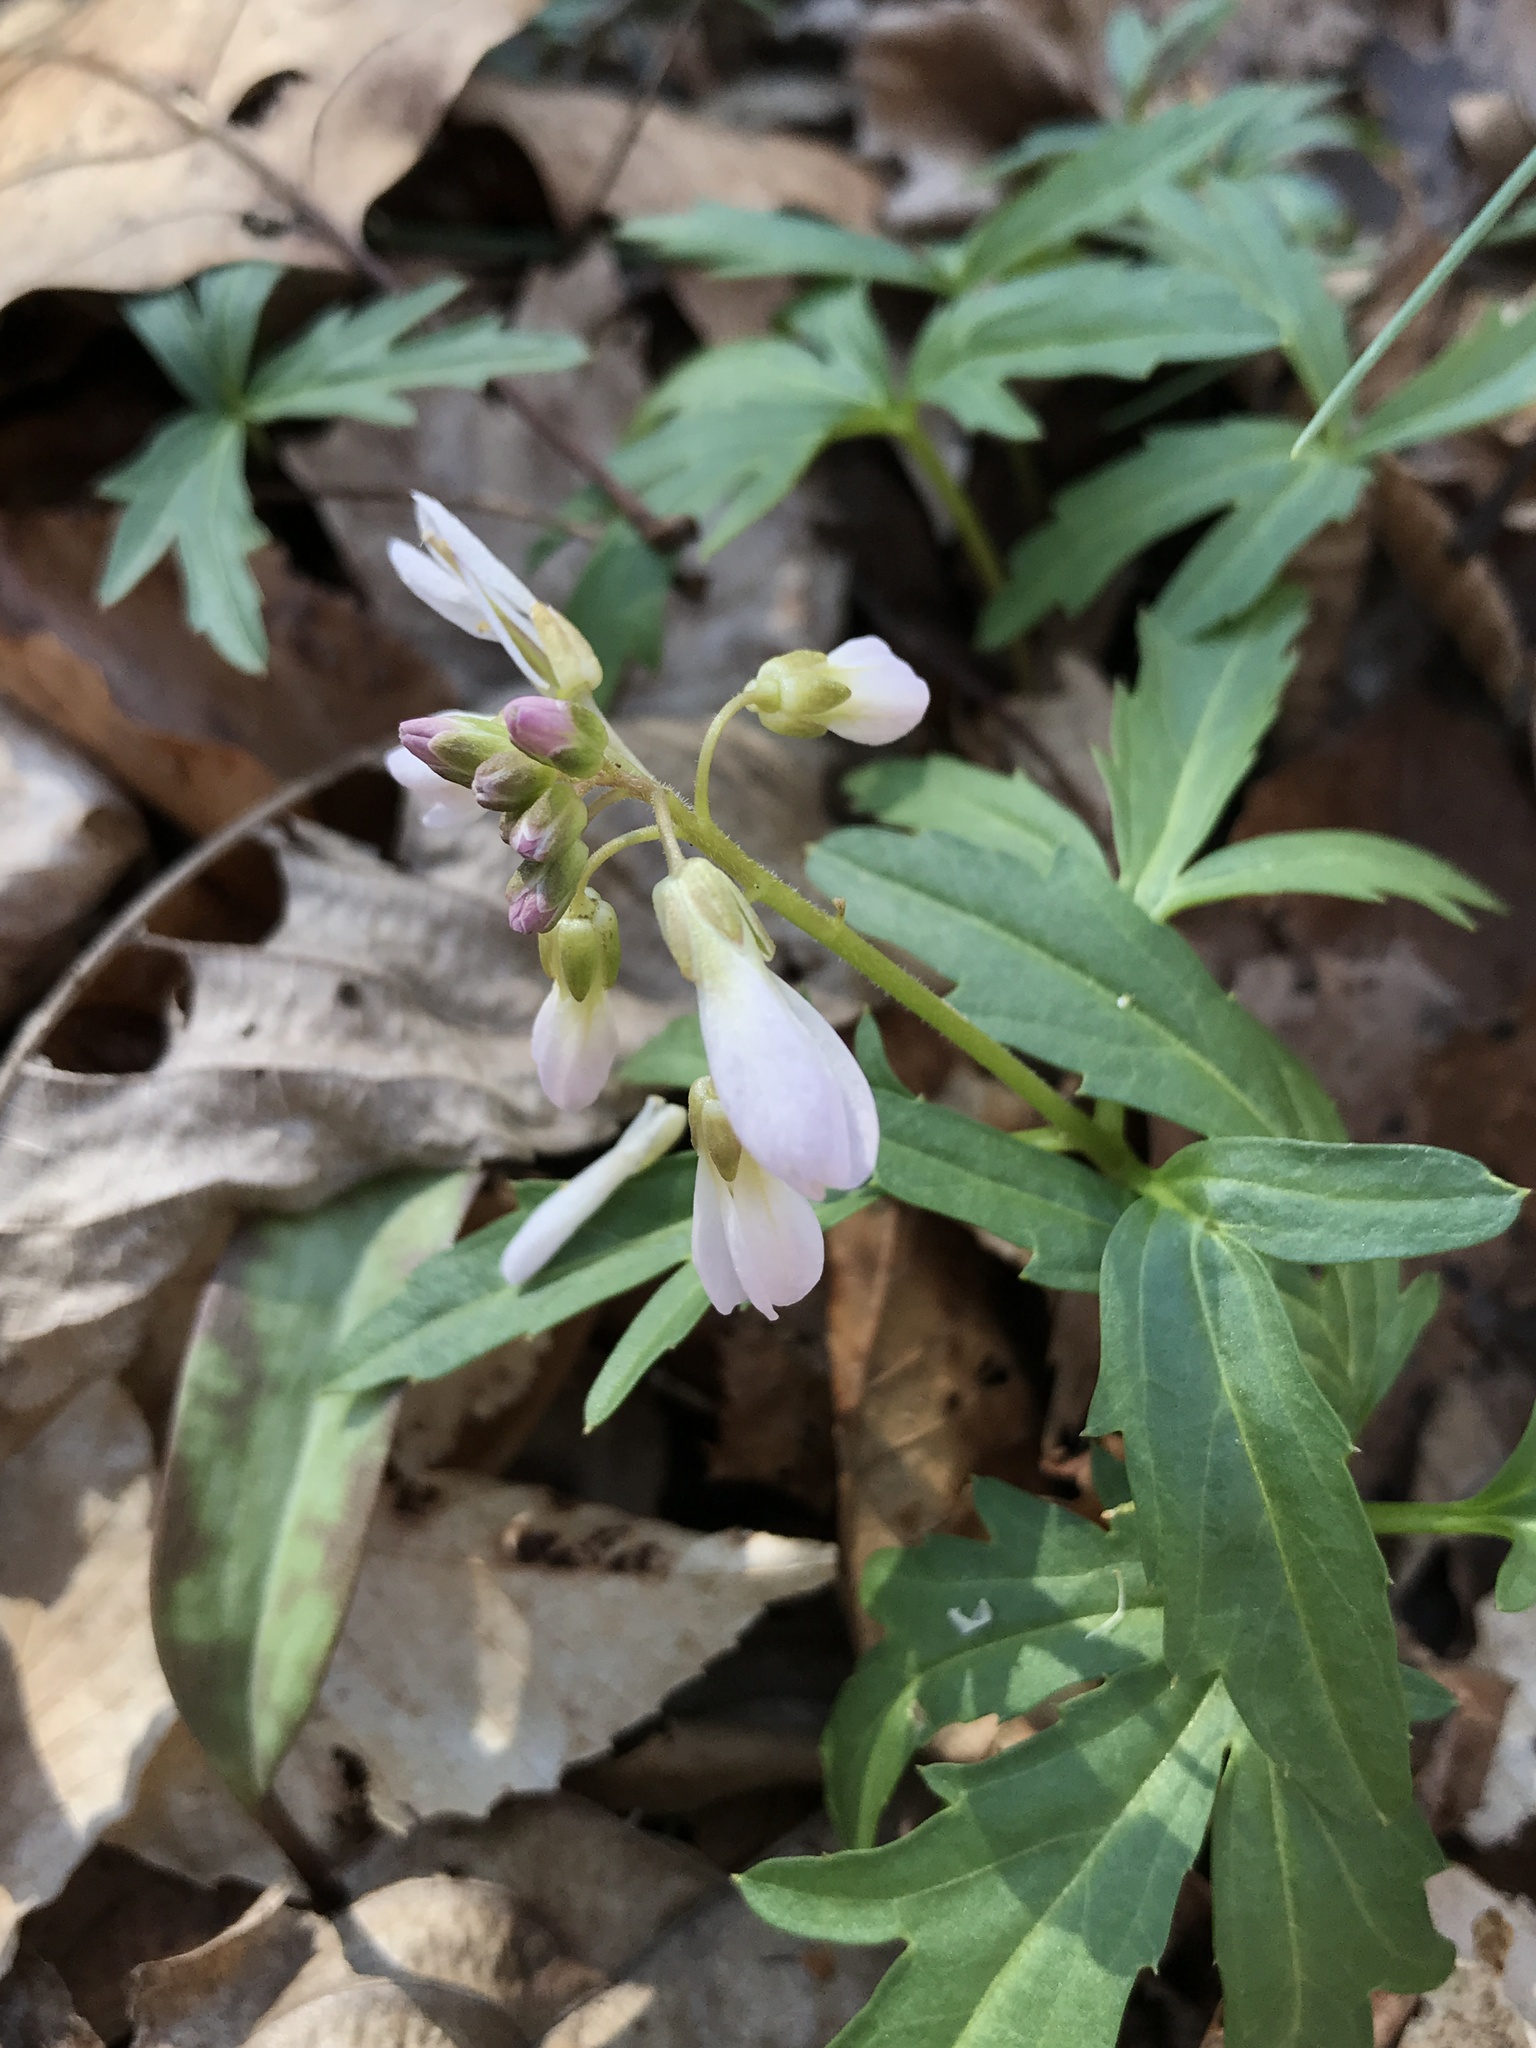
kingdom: Plantae
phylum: Tracheophyta
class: Magnoliopsida
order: Brassicales
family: Brassicaceae
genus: Cardamine
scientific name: Cardamine concatenata
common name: Cut-leaf toothcup
